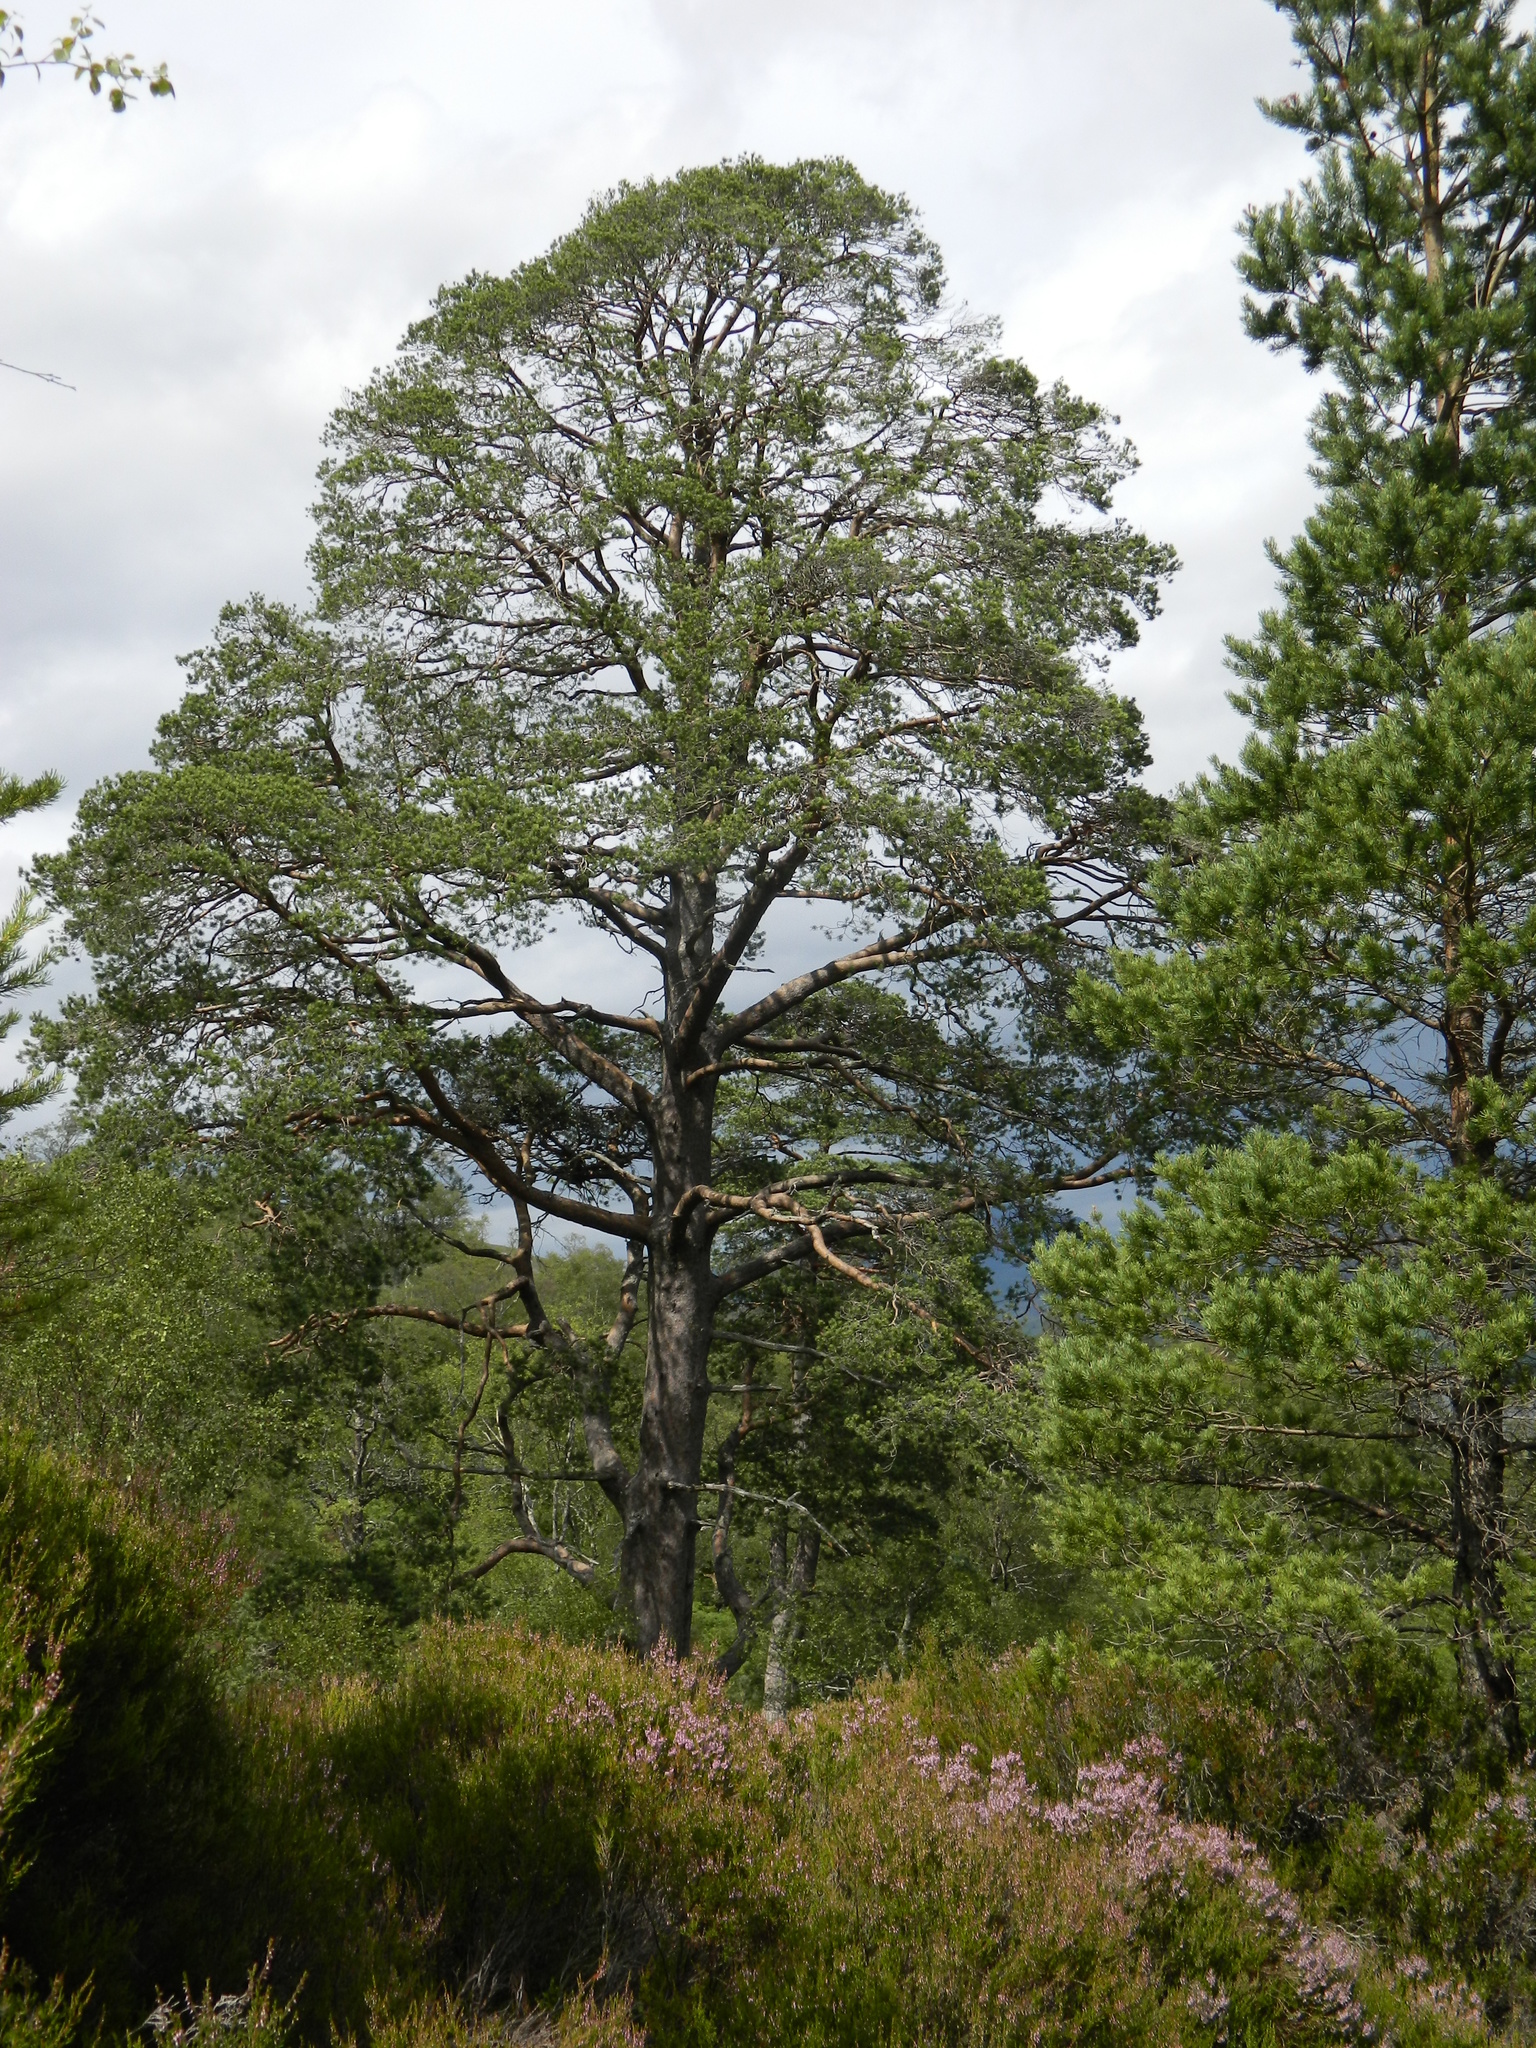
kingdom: Plantae
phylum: Tracheophyta
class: Pinopsida
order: Pinales
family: Pinaceae
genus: Pinus
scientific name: Pinus sylvestris
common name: Scots pine
